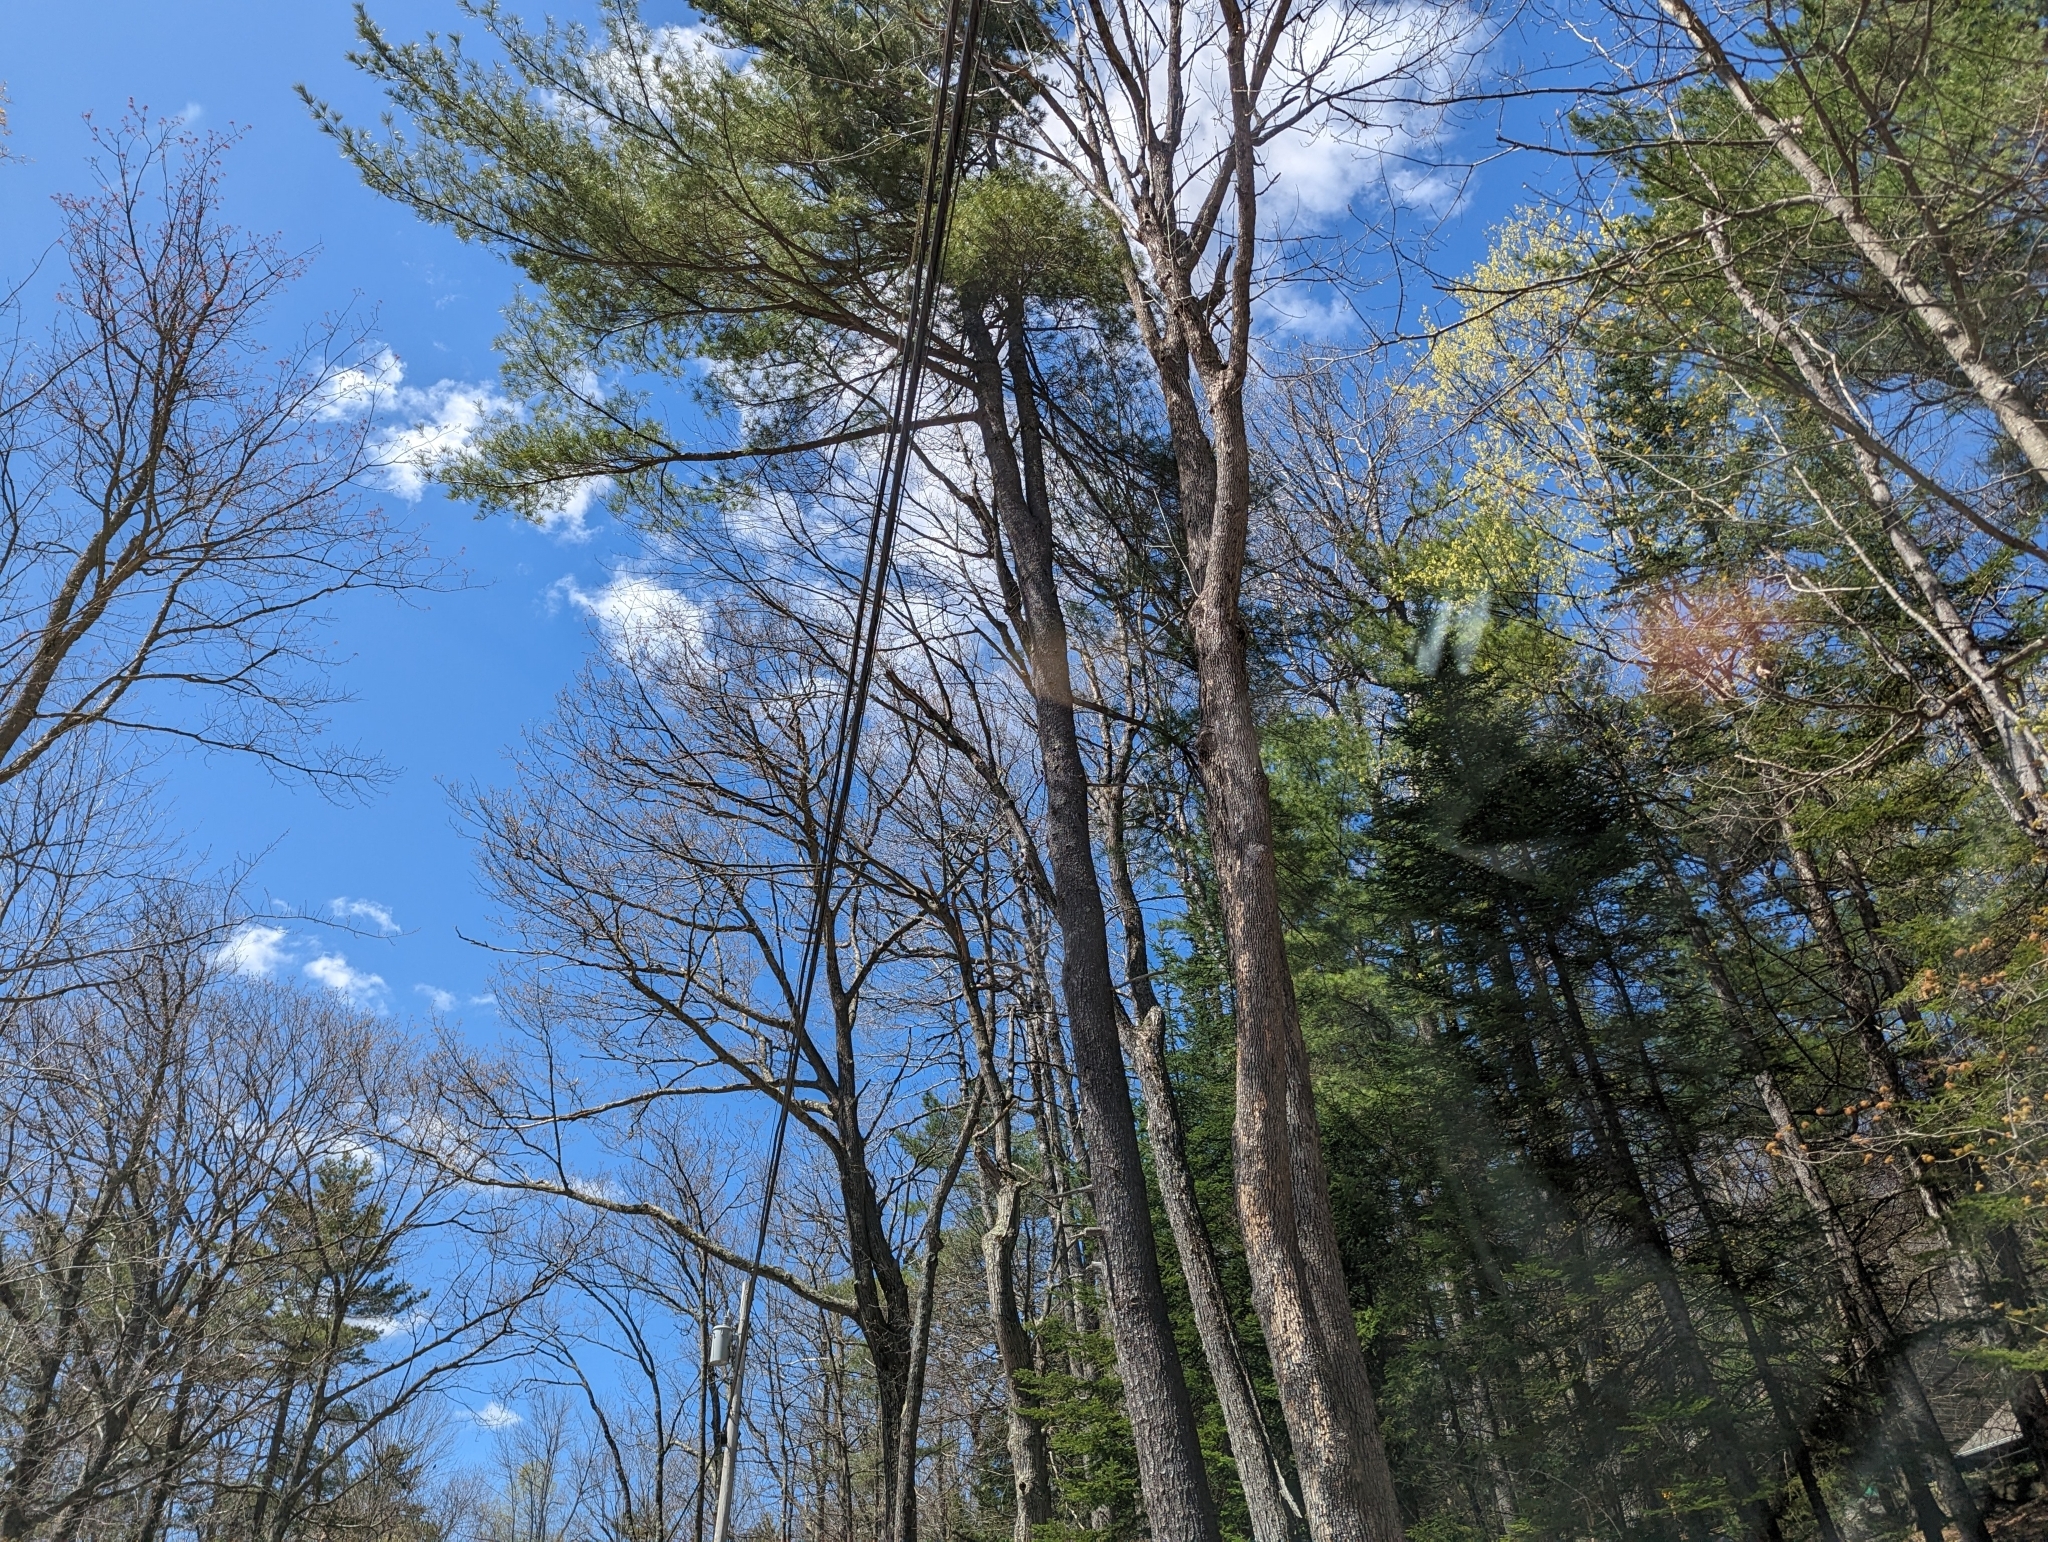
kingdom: Plantae
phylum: Tracheophyta
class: Pinopsida
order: Pinales
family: Pinaceae
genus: Pinus
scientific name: Pinus strobus
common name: Weymouth pine
